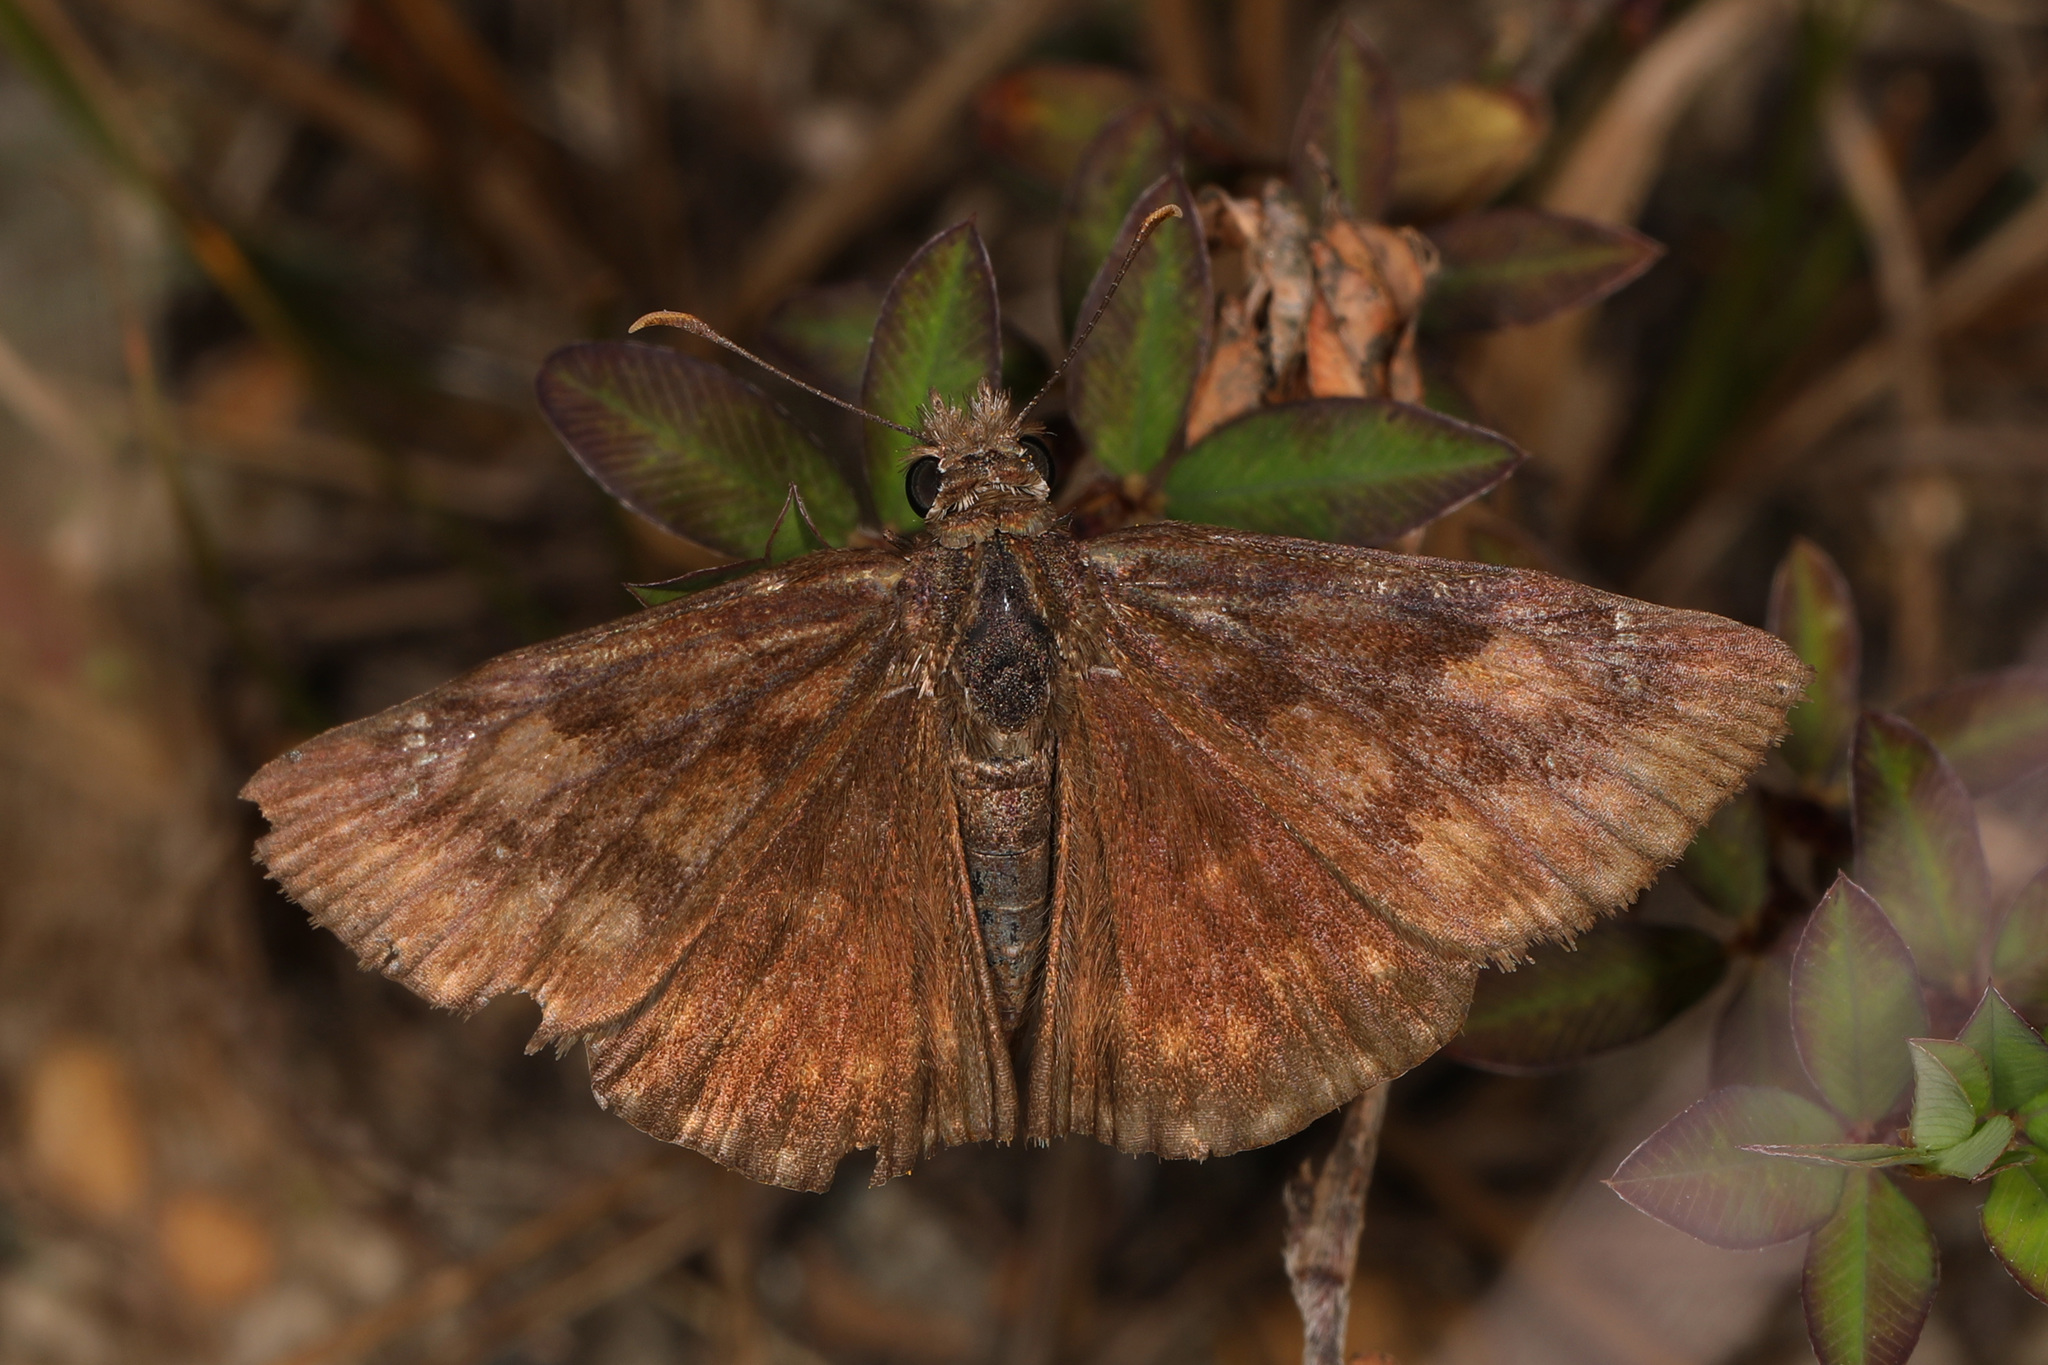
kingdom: Animalia
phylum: Arthropoda
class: Insecta
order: Lepidoptera
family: Hesperiidae
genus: Erynnis
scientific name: Erynnis baptisiae
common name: Wild indigo duskywing
